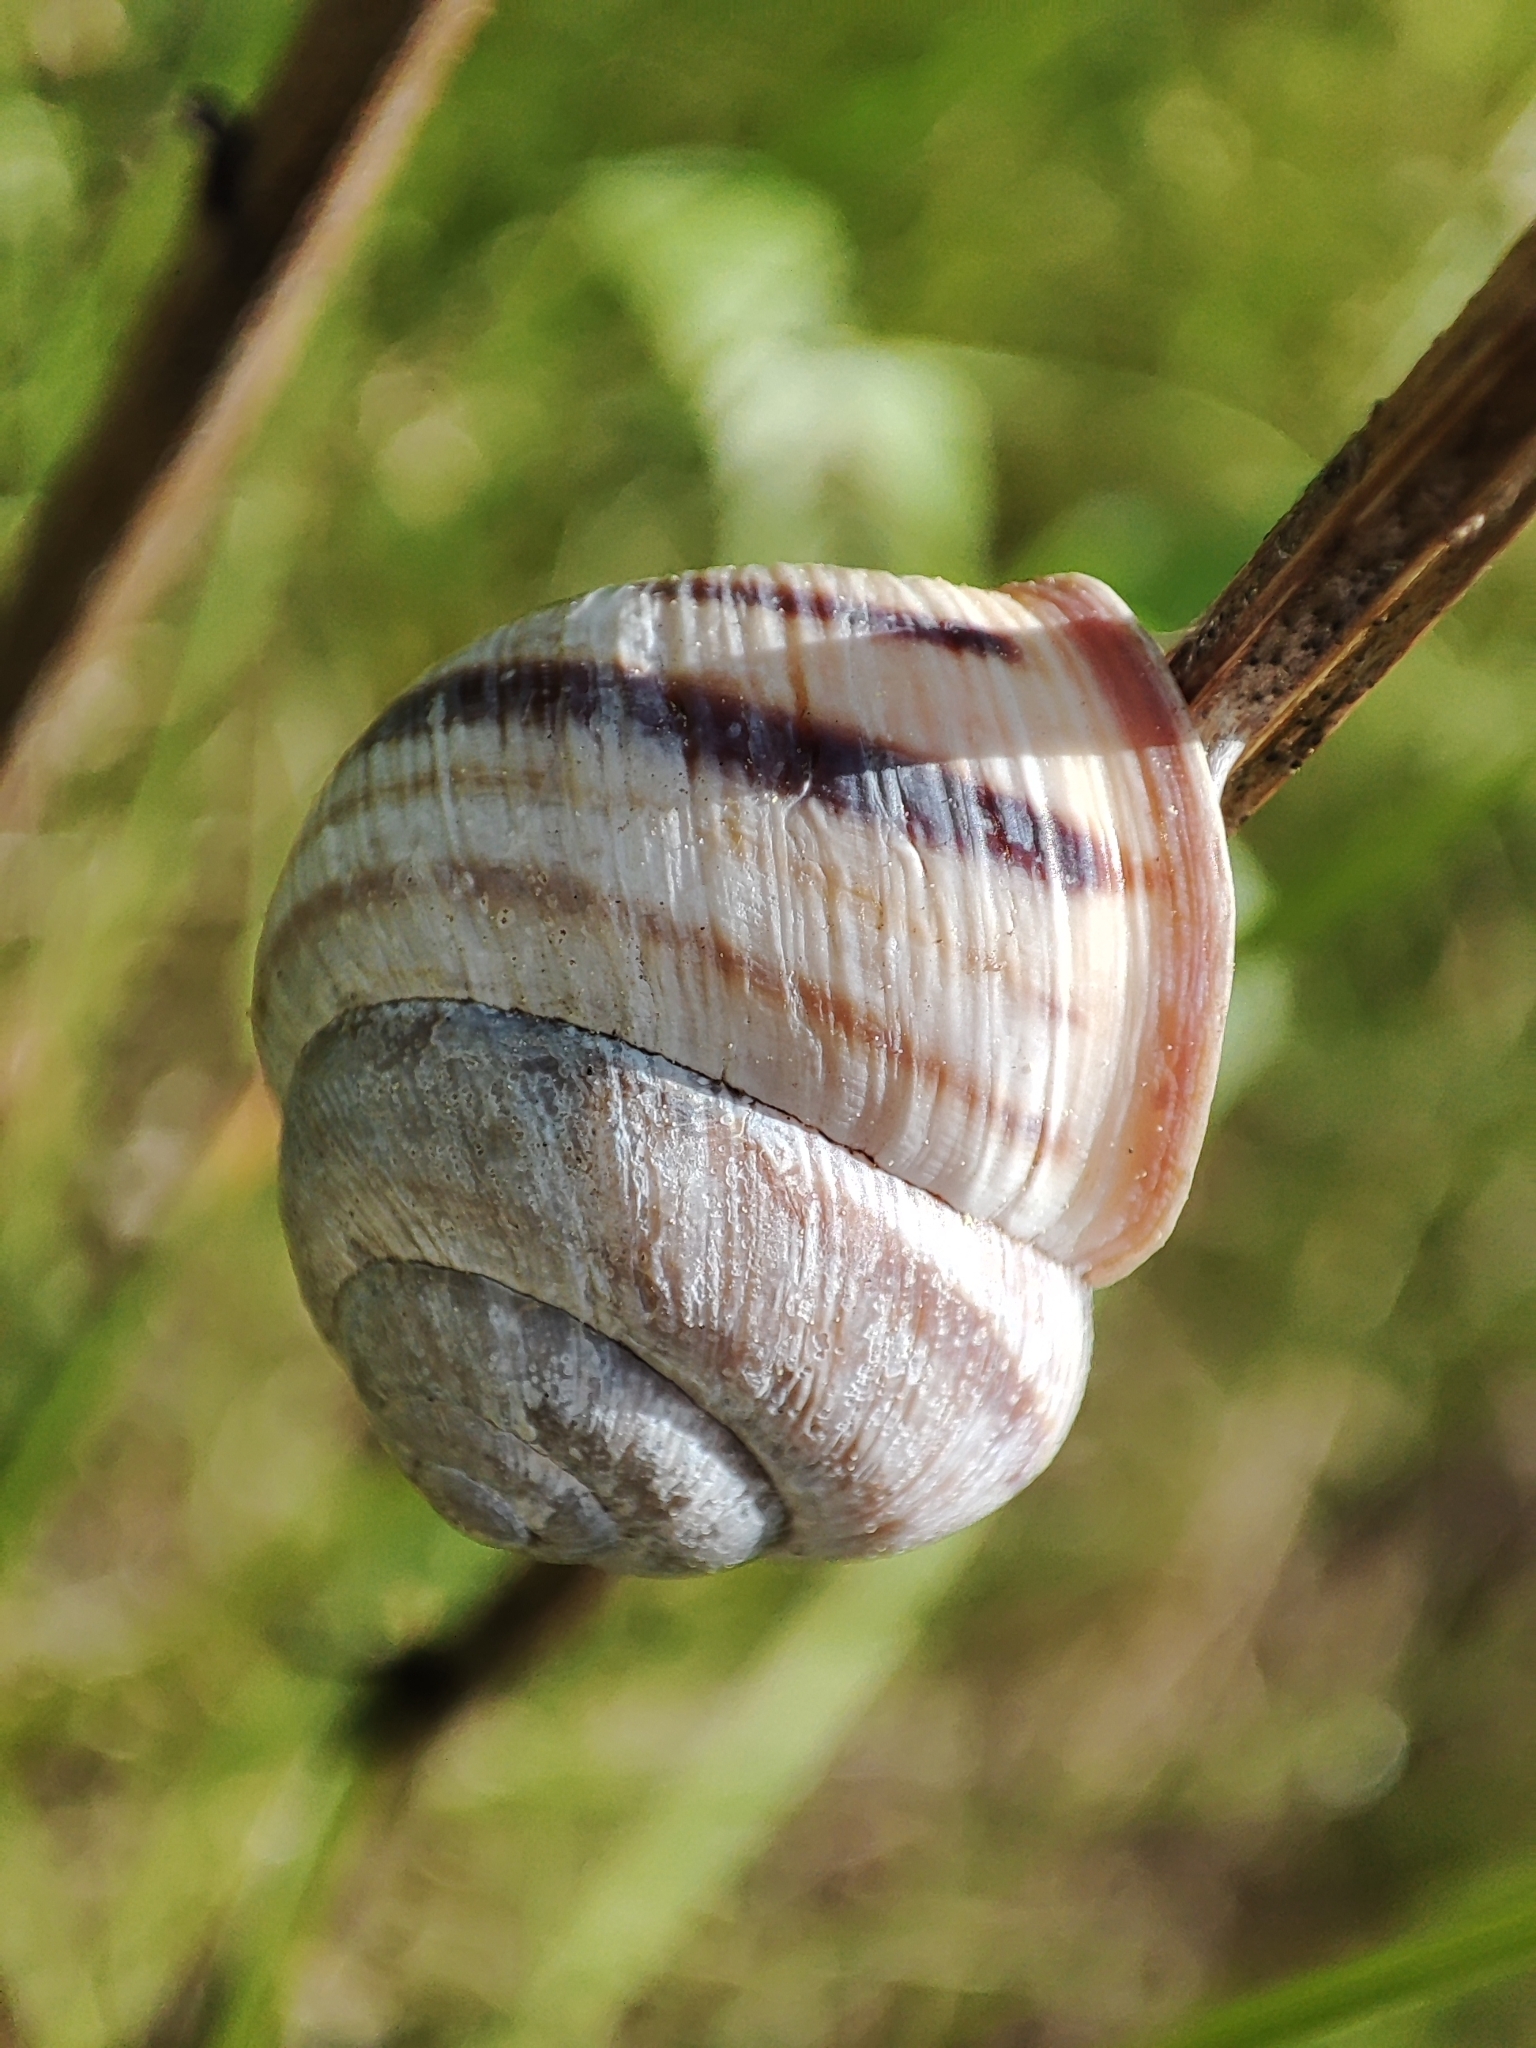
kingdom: Animalia
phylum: Mollusca
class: Gastropoda
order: Stylommatophora
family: Helicidae
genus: Caucasotachea
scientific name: Caucasotachea vindobonensis
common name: European helicid land snail
